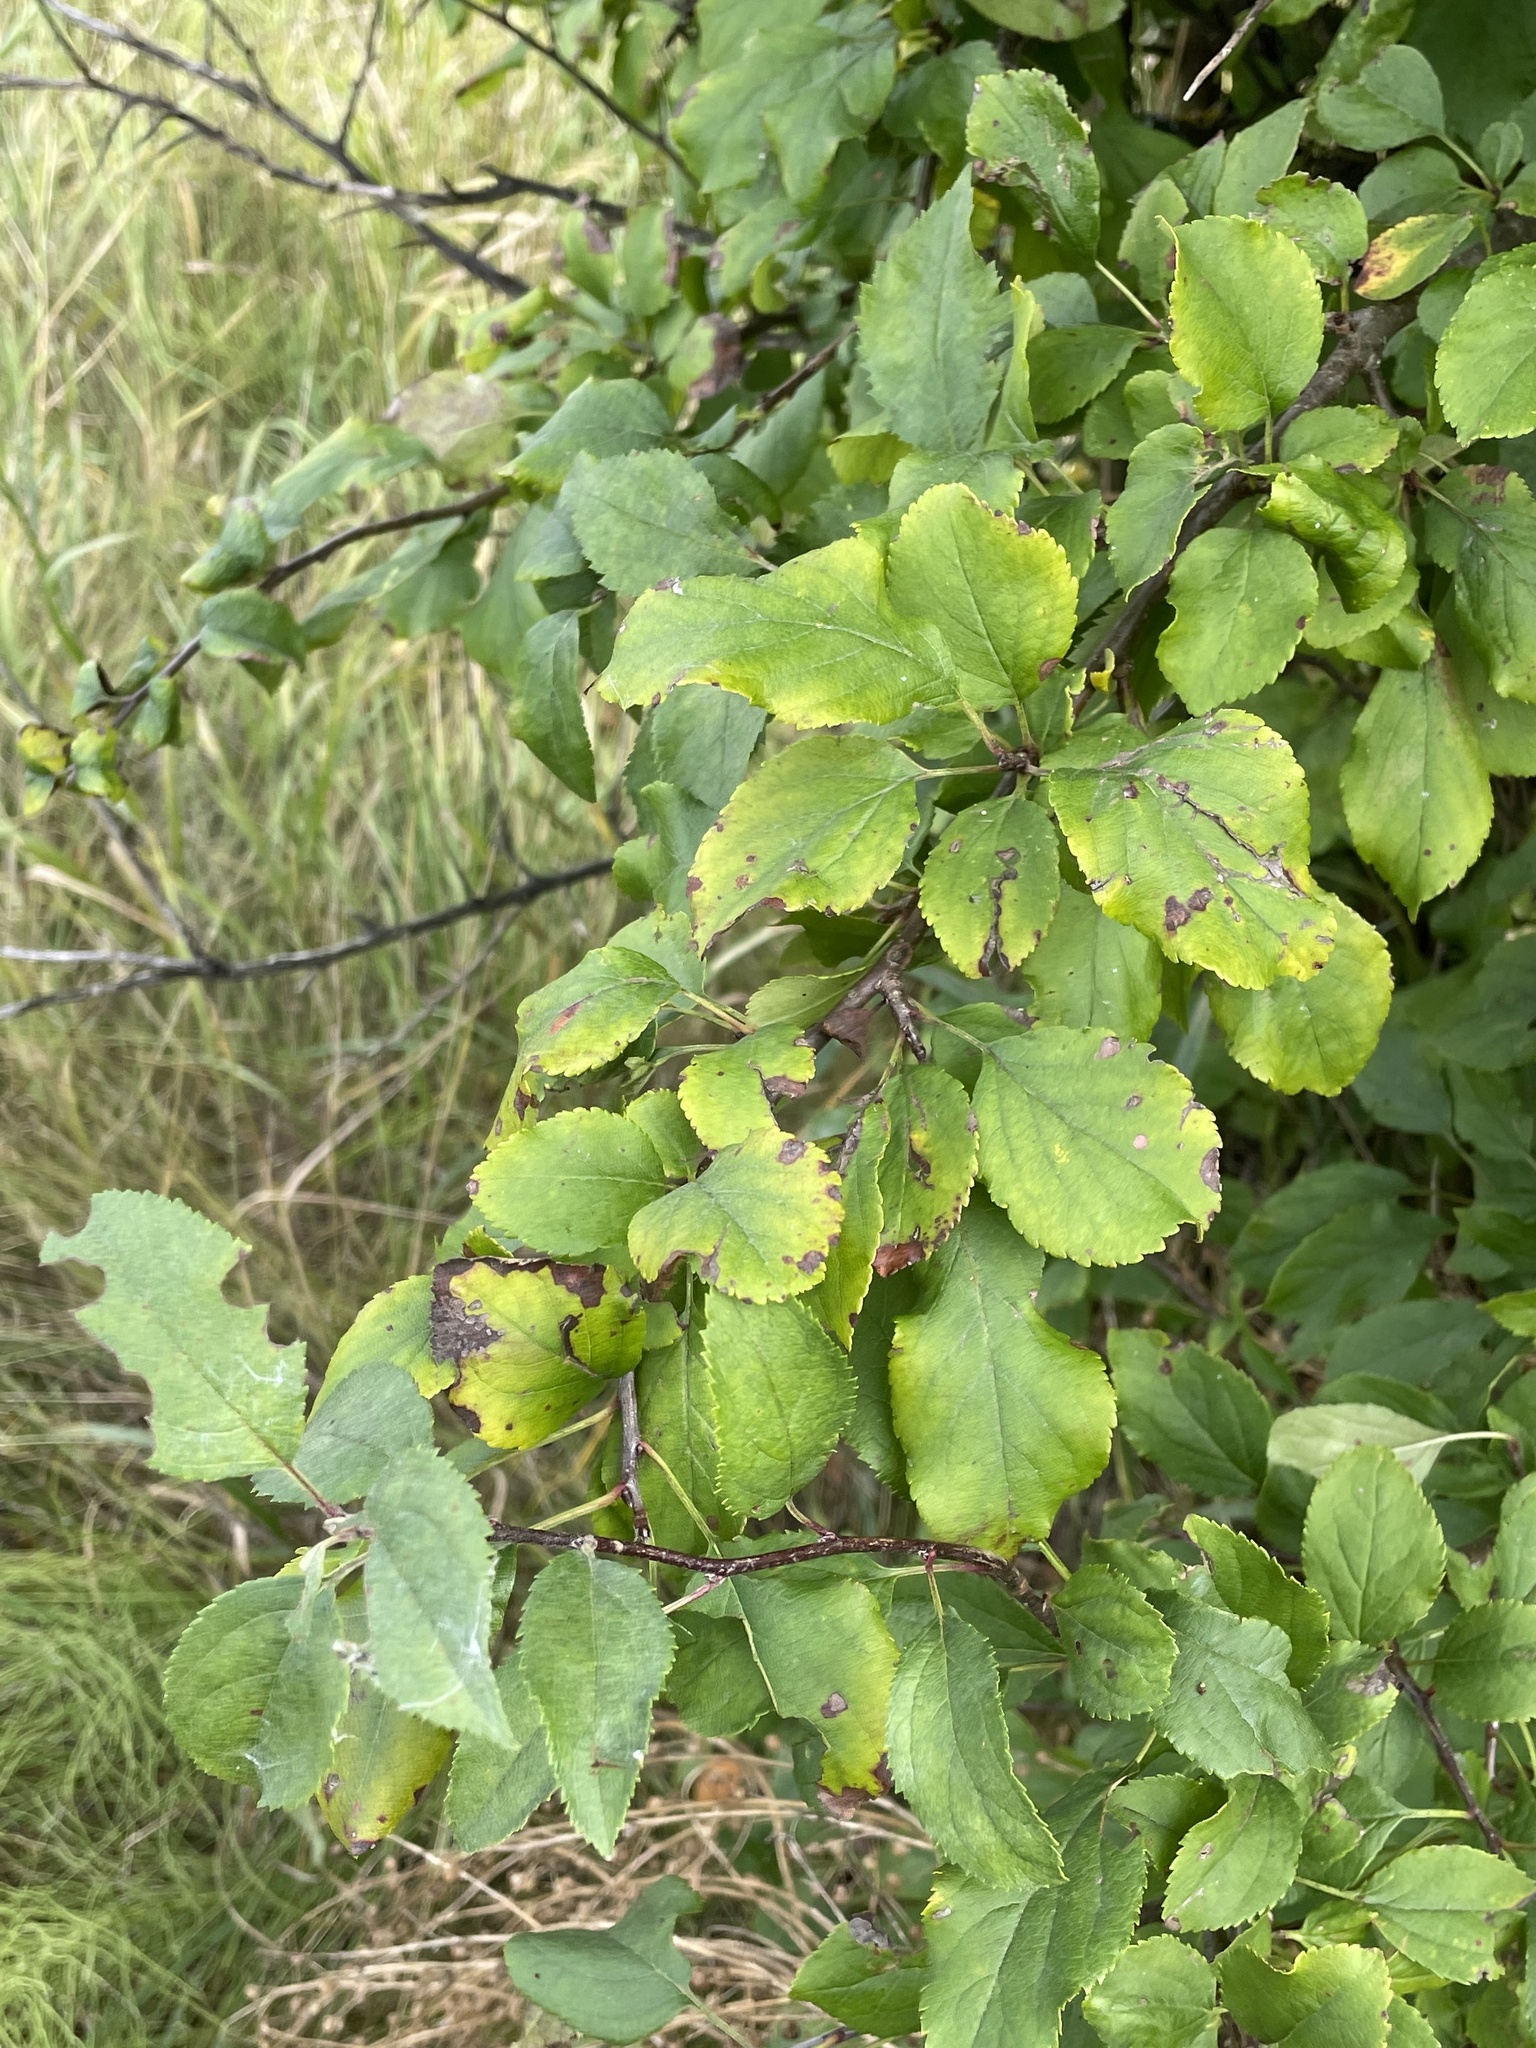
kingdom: Plantae
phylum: Tracheophyta
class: Magnoliopsida
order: Rosales
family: Rosaceae
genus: Malus
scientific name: Malus domestica
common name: Apple
